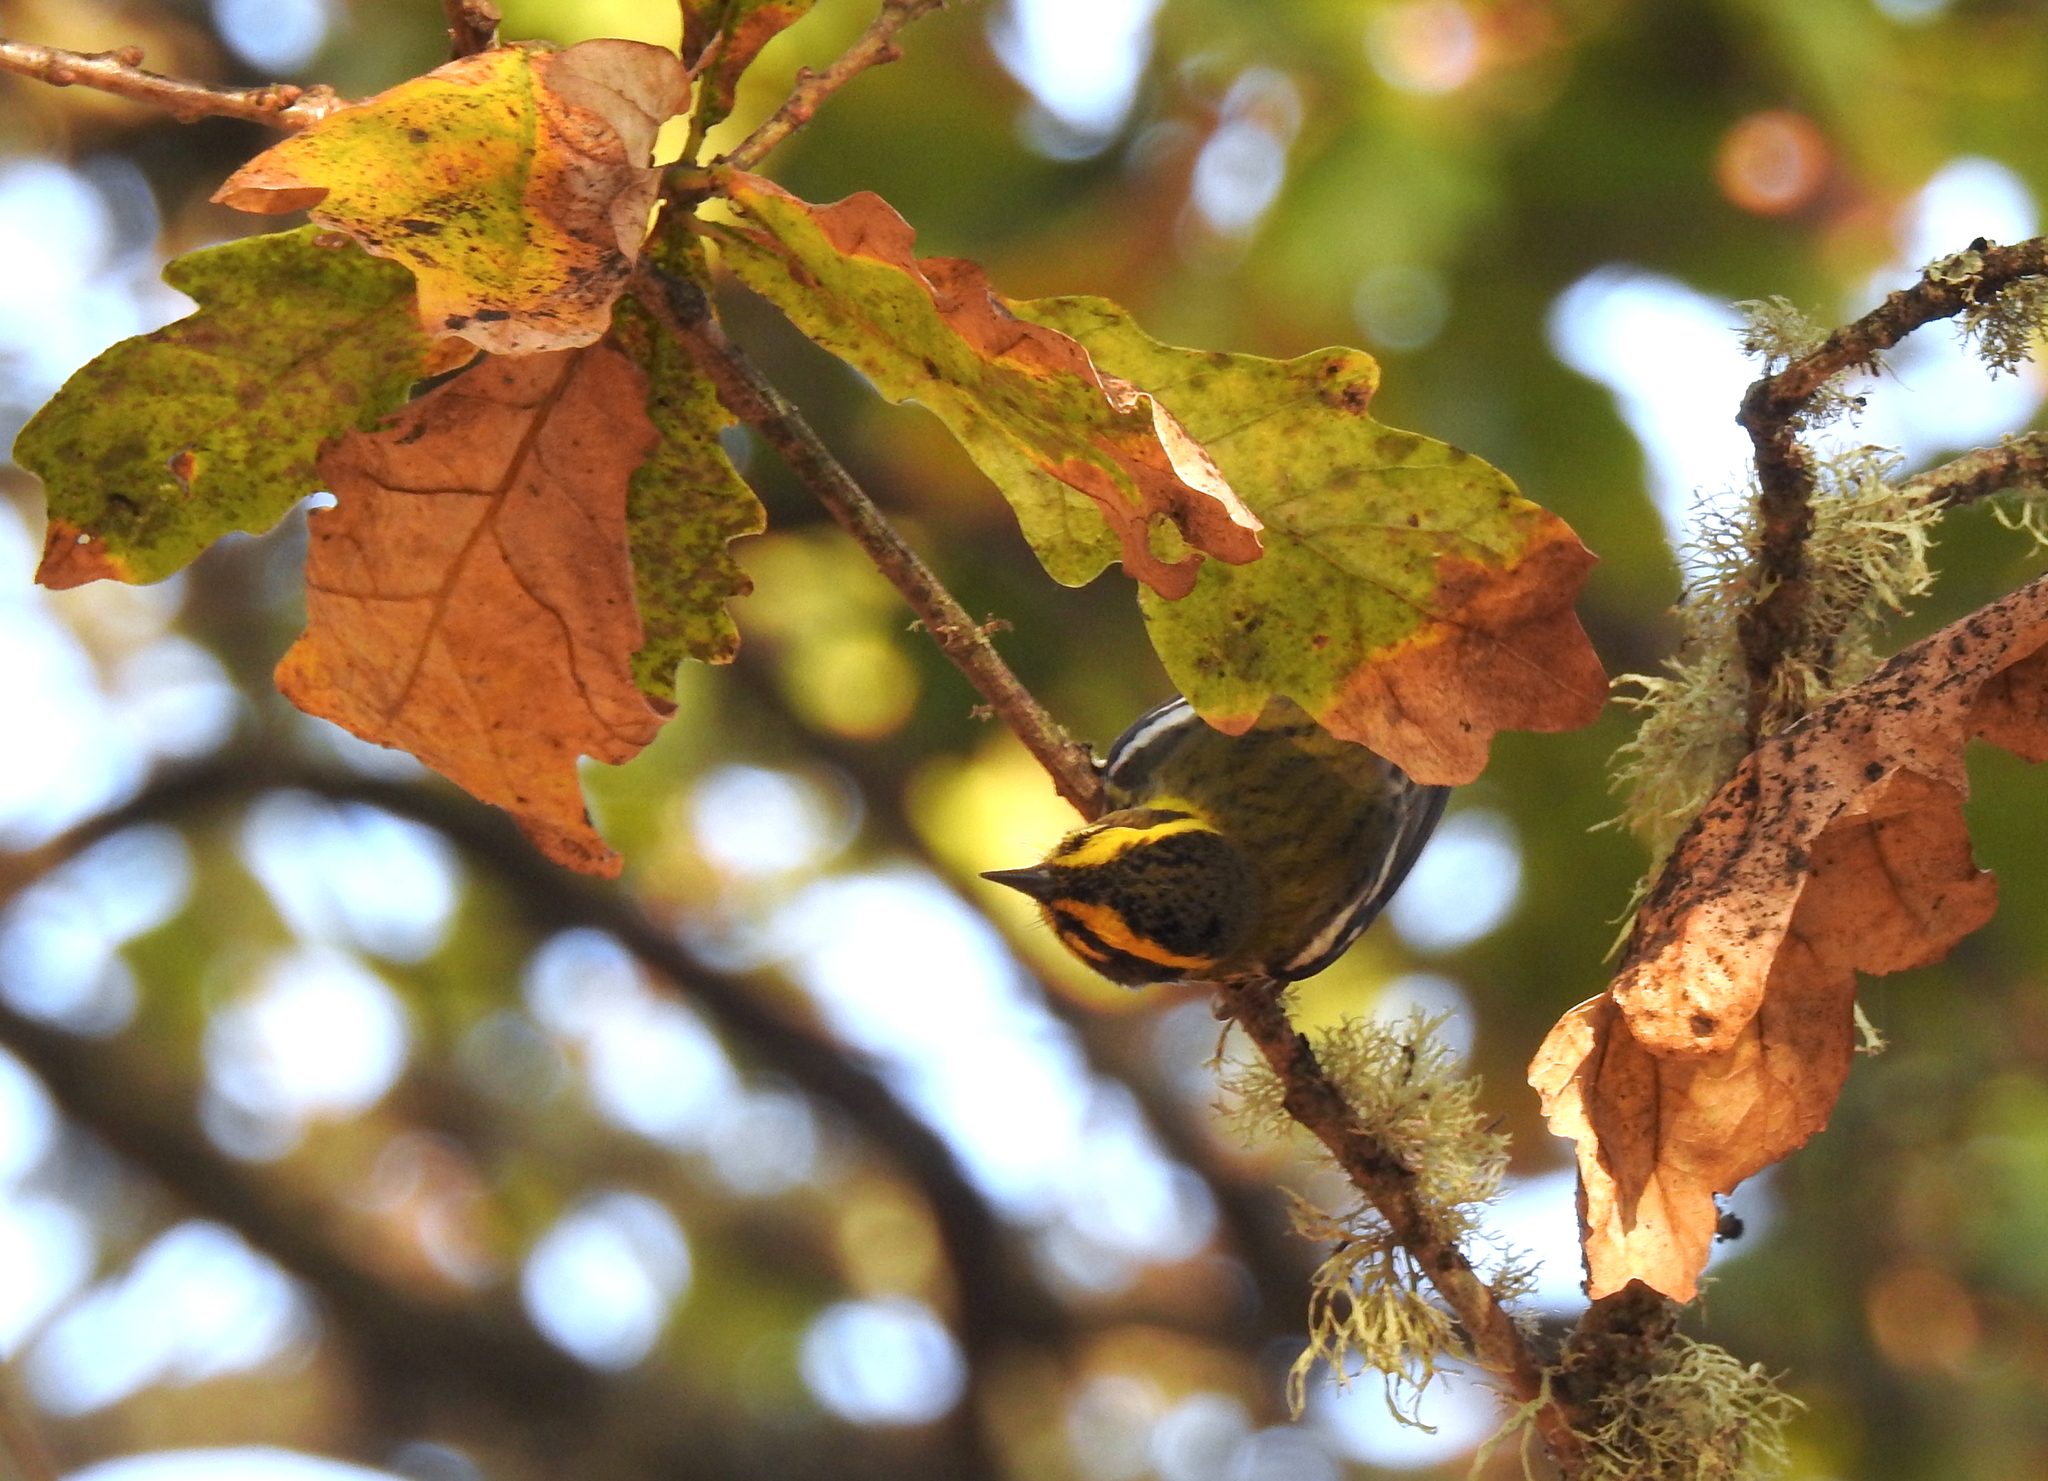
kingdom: Animalia
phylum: Chordata
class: Aves
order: Passeriformes
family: Parulidae
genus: Setophaga
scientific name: Setophaga townsendi
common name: Townsend's warbler
